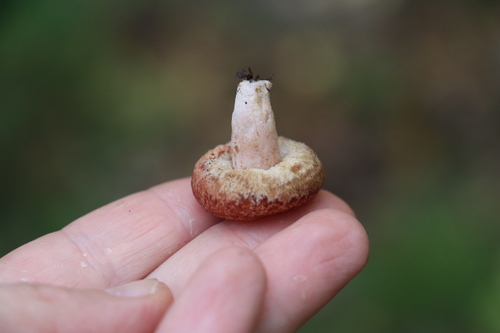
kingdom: Fungi
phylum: Basidiomycota
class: Agaricomycetes
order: Russulales
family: Russulaceae
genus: Lactarius
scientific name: Lactarius torminosus
